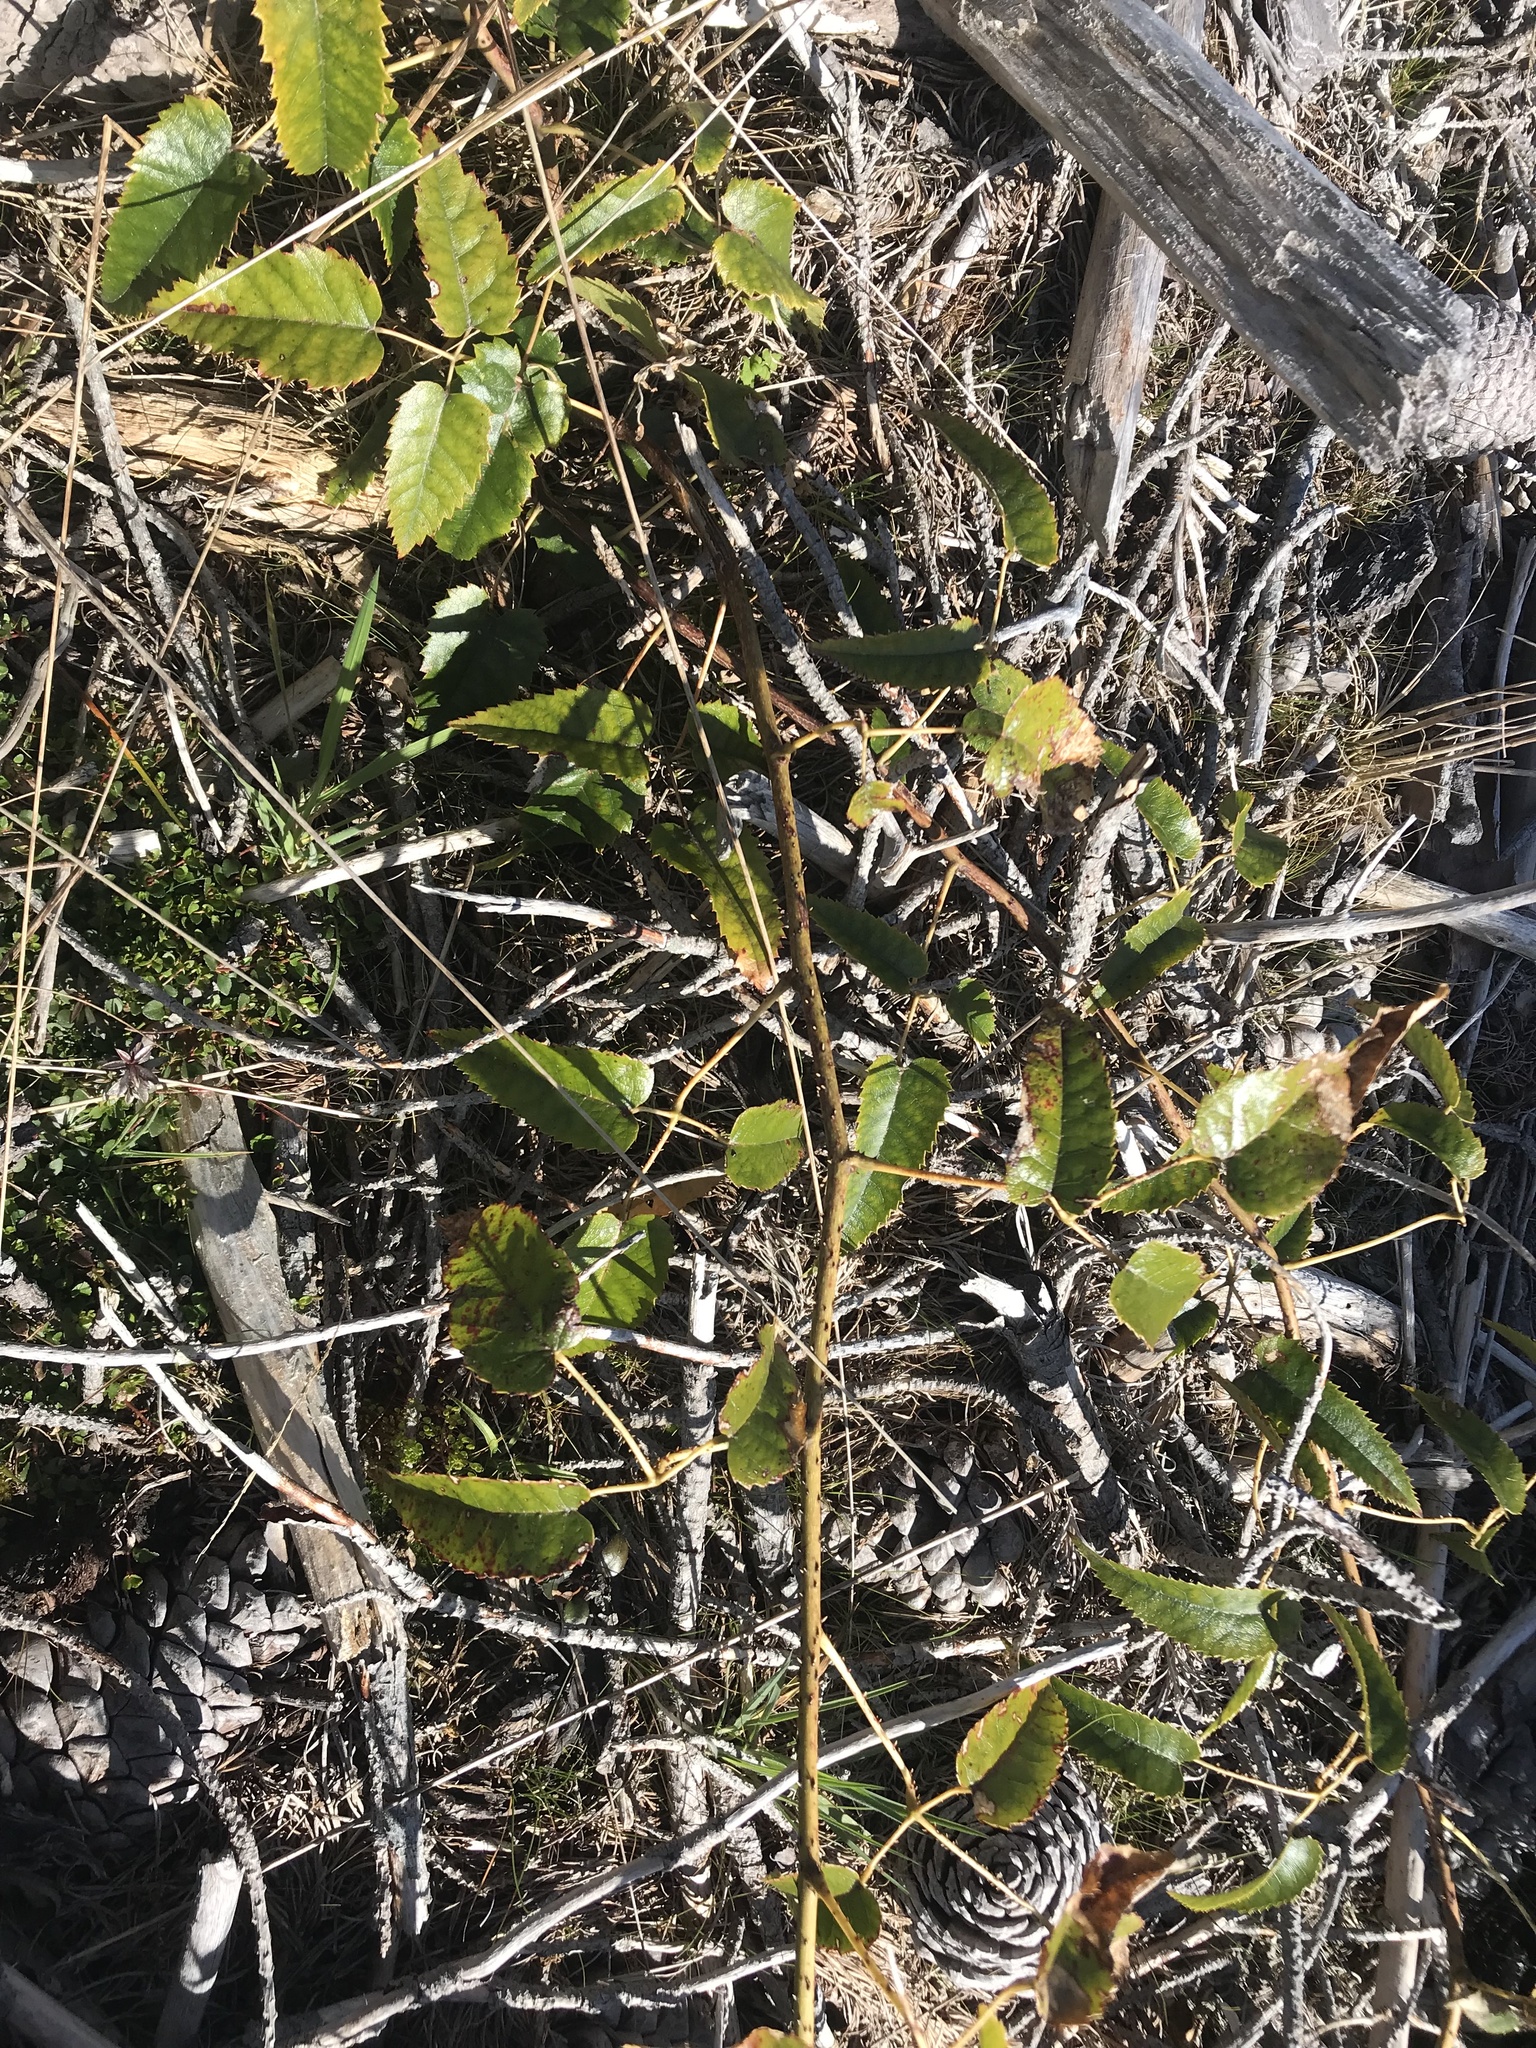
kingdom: Plantae
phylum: Tracheophyta
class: Magnoliopsida
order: Rosales
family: Rosaceae
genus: Rubus
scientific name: Rubus cissoides
